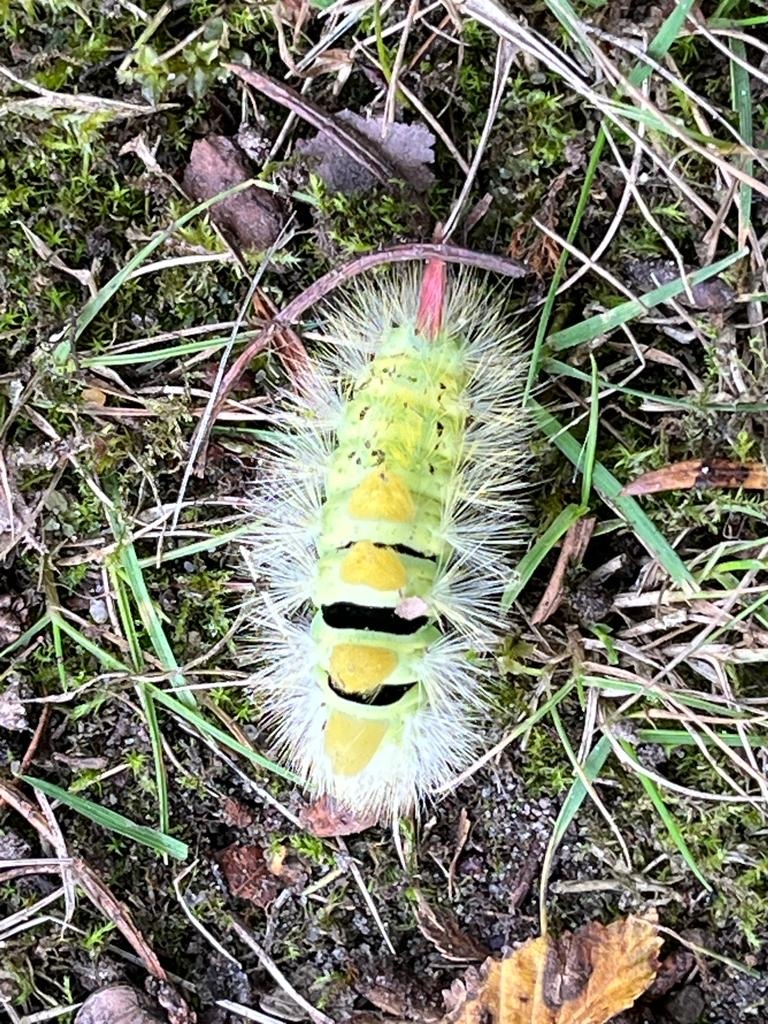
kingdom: Animalia
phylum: Arthropoda
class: Insecta
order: Lepidoptera
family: Erebidae
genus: Calliteara
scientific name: Calliteara pudibunda
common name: Pale tussock
